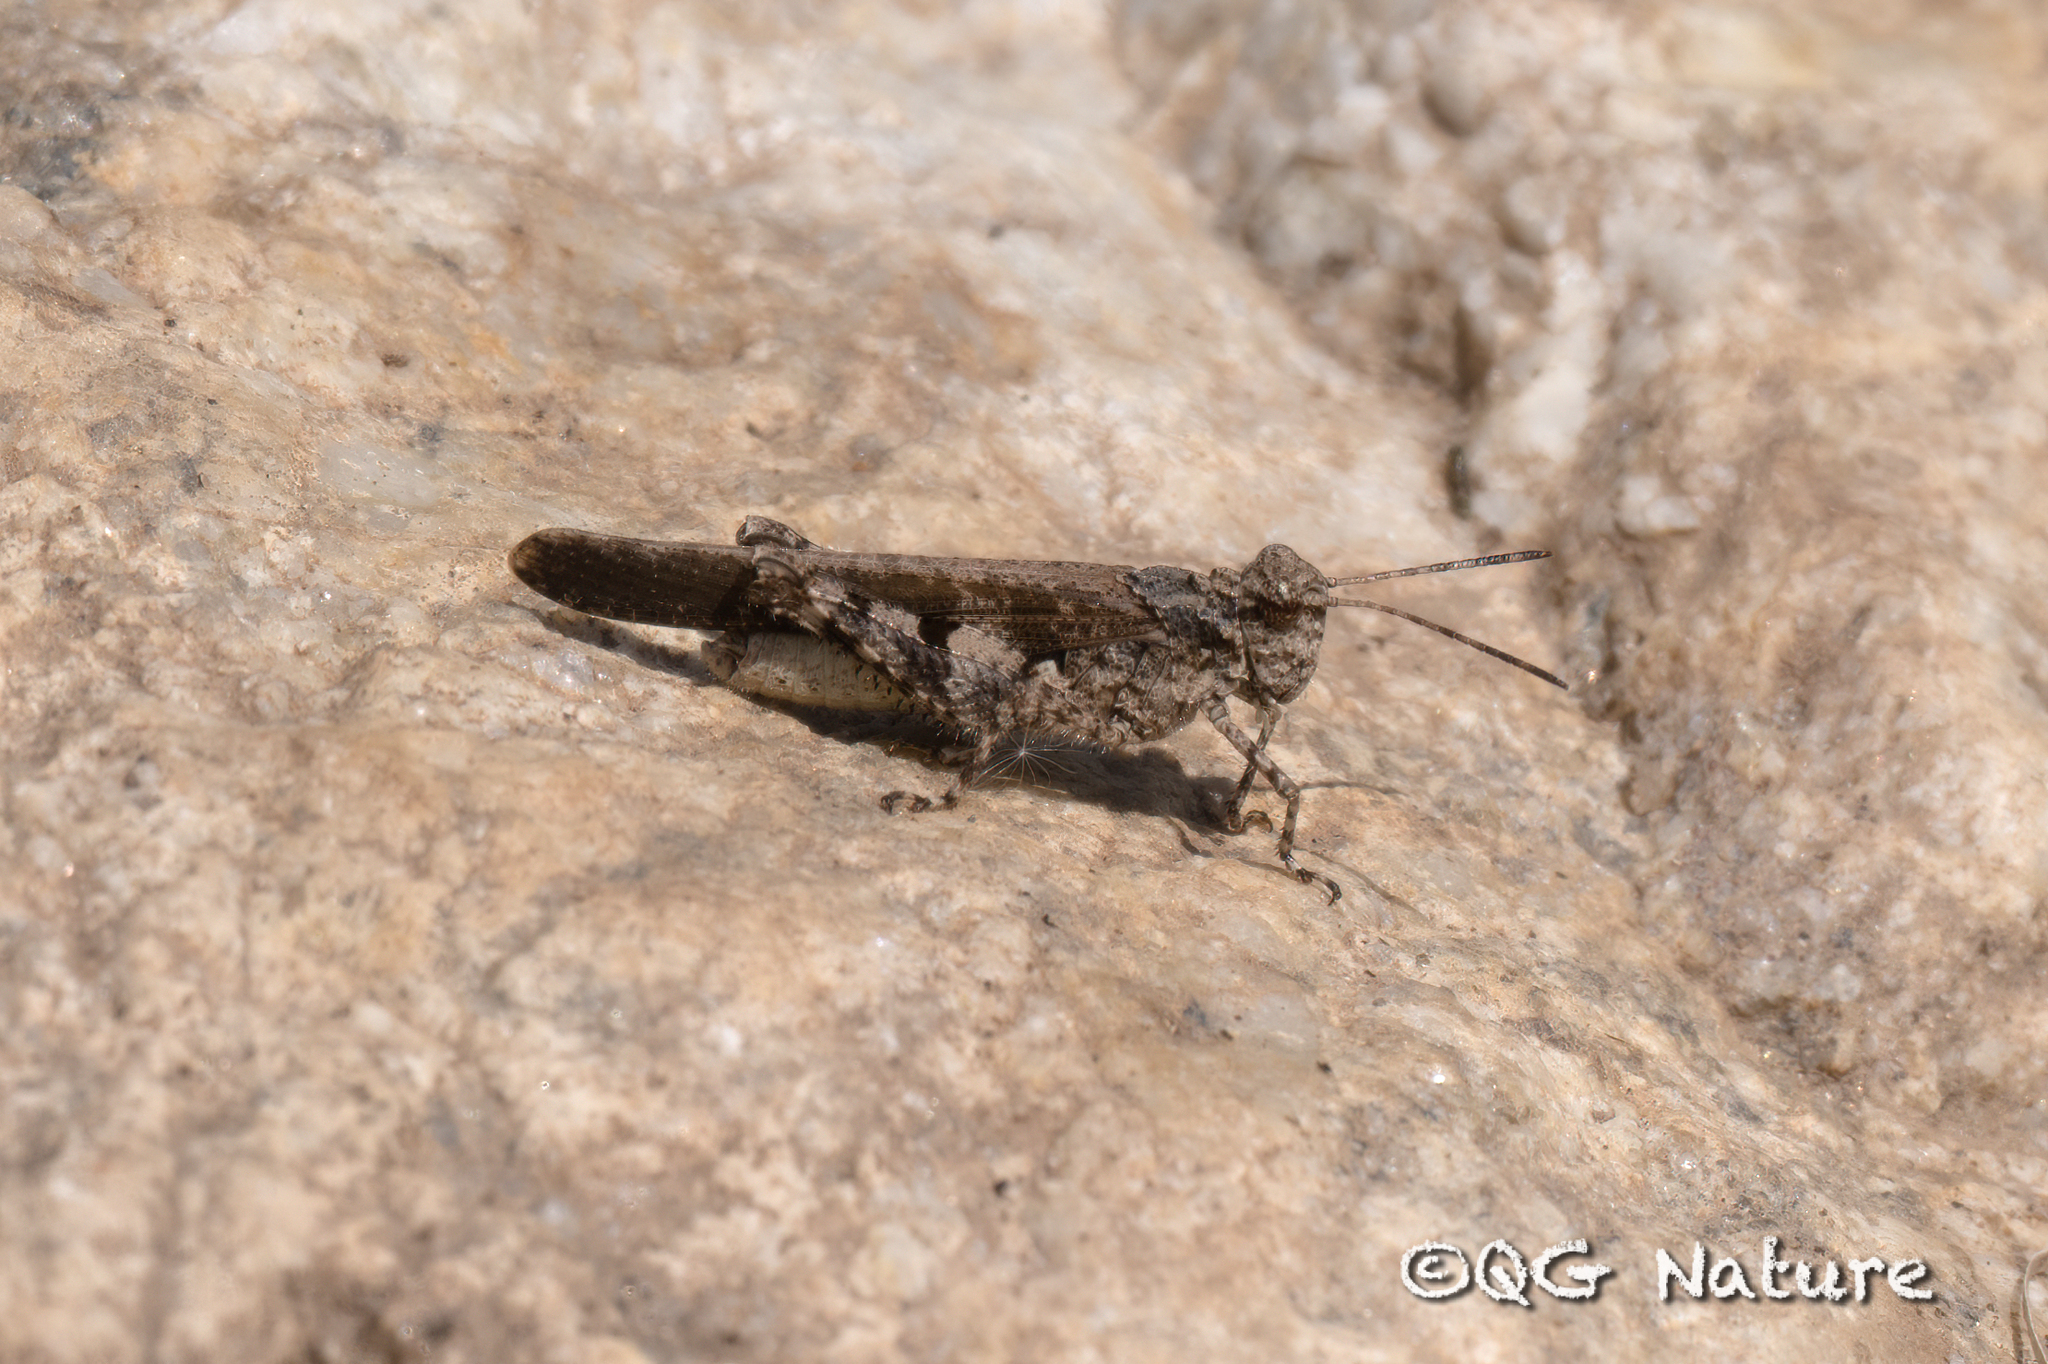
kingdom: Animalia
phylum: Arthropoda
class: Insecta
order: Orthoptera
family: Acrididae
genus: Trilophidia
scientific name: Trilophidia annulata
